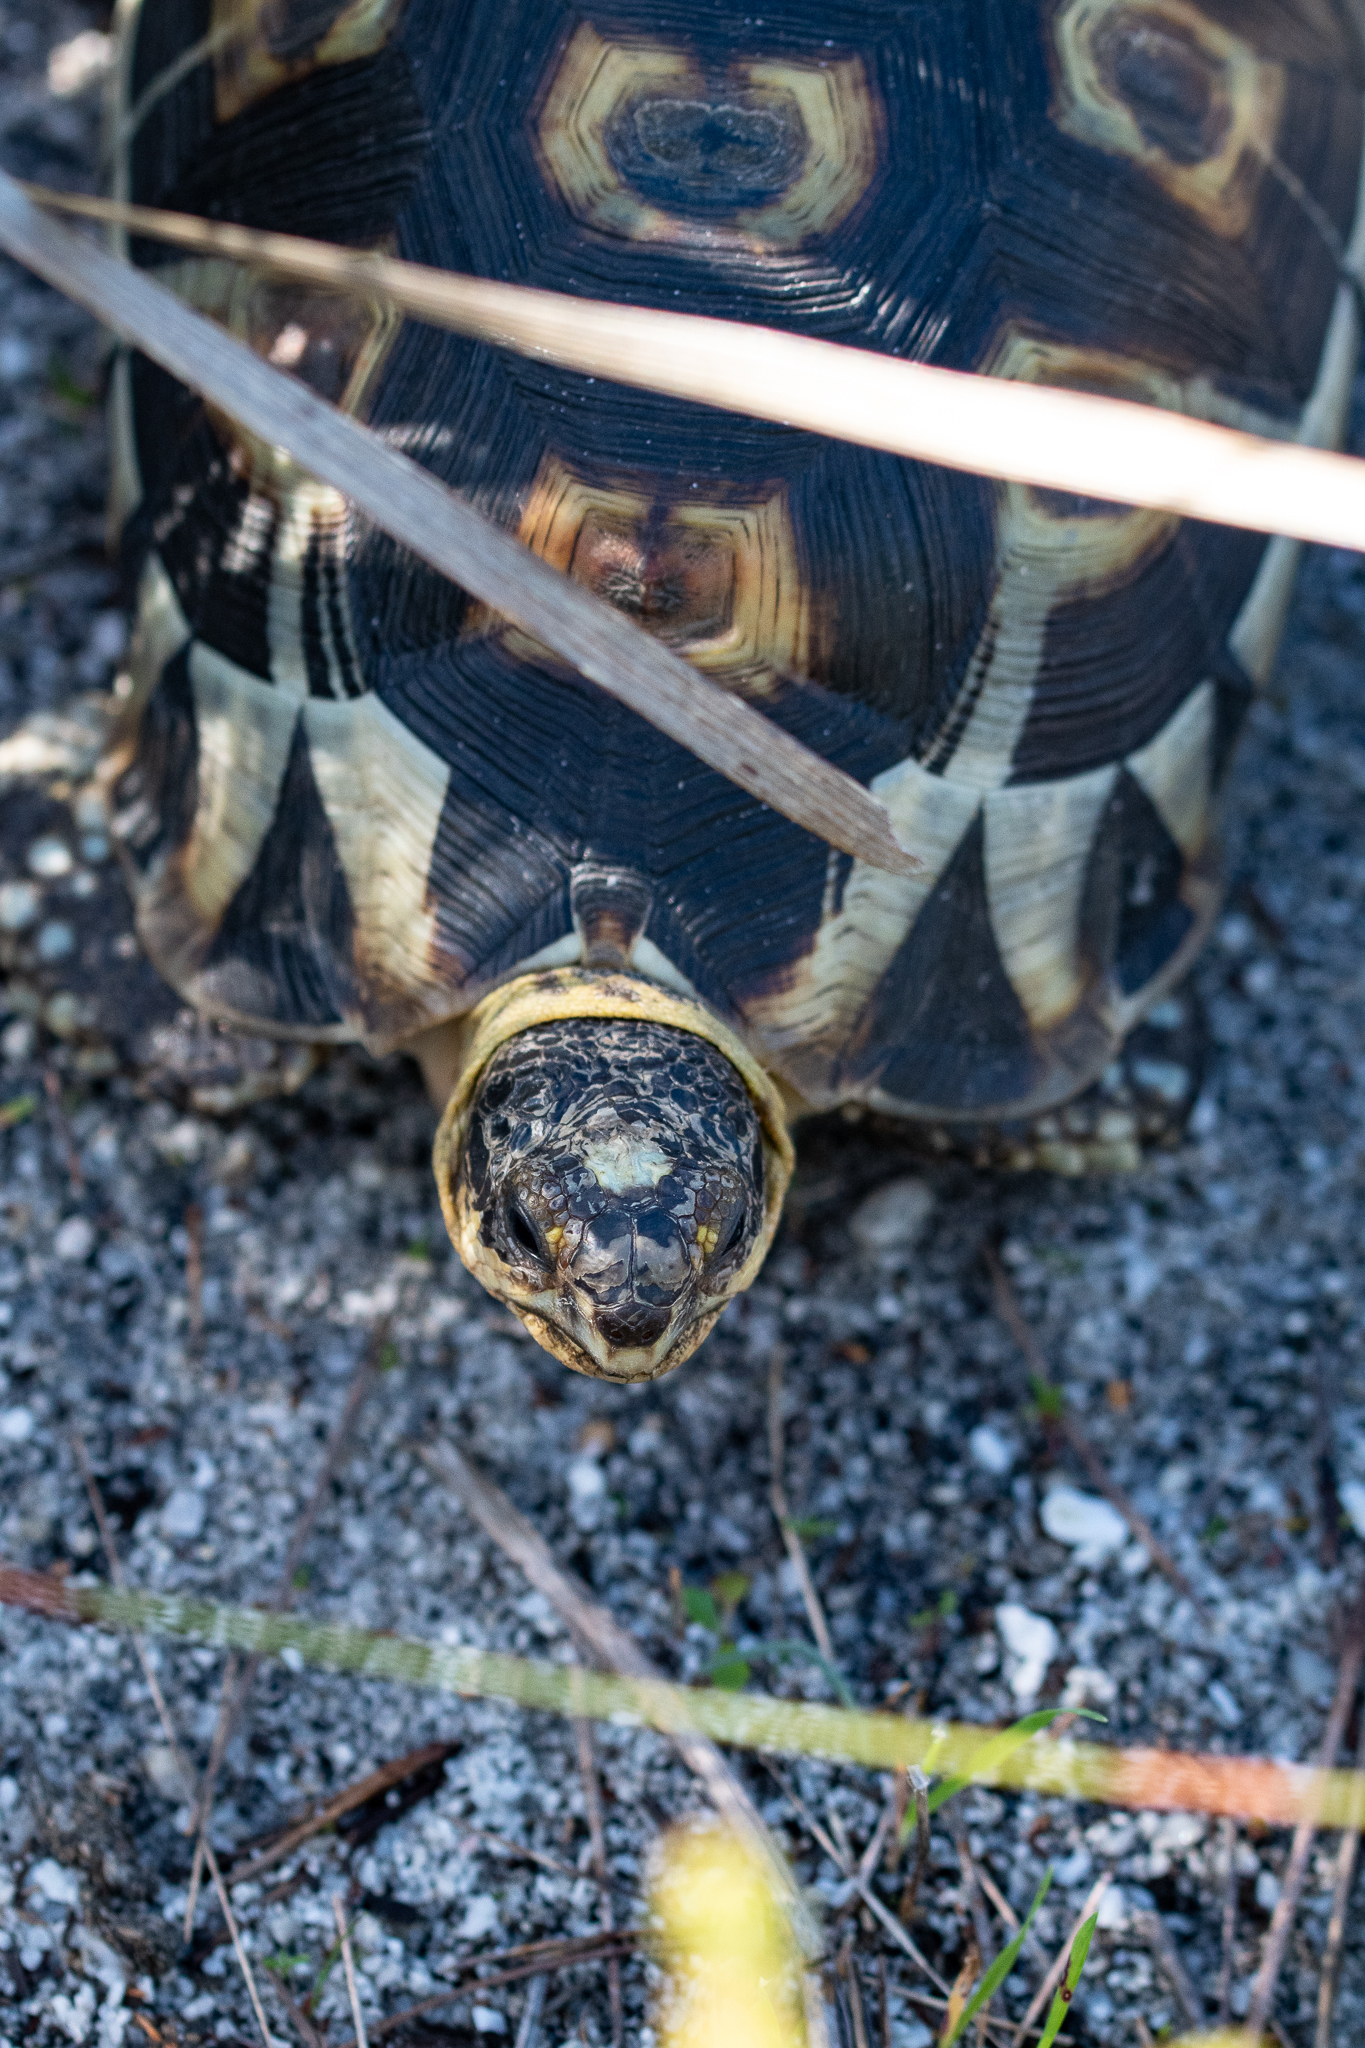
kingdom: Animalia
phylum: Chordata
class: Testudines
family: Testudinidae
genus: Chersina
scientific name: Chersina angulata
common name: South african bowsprit tortoise
